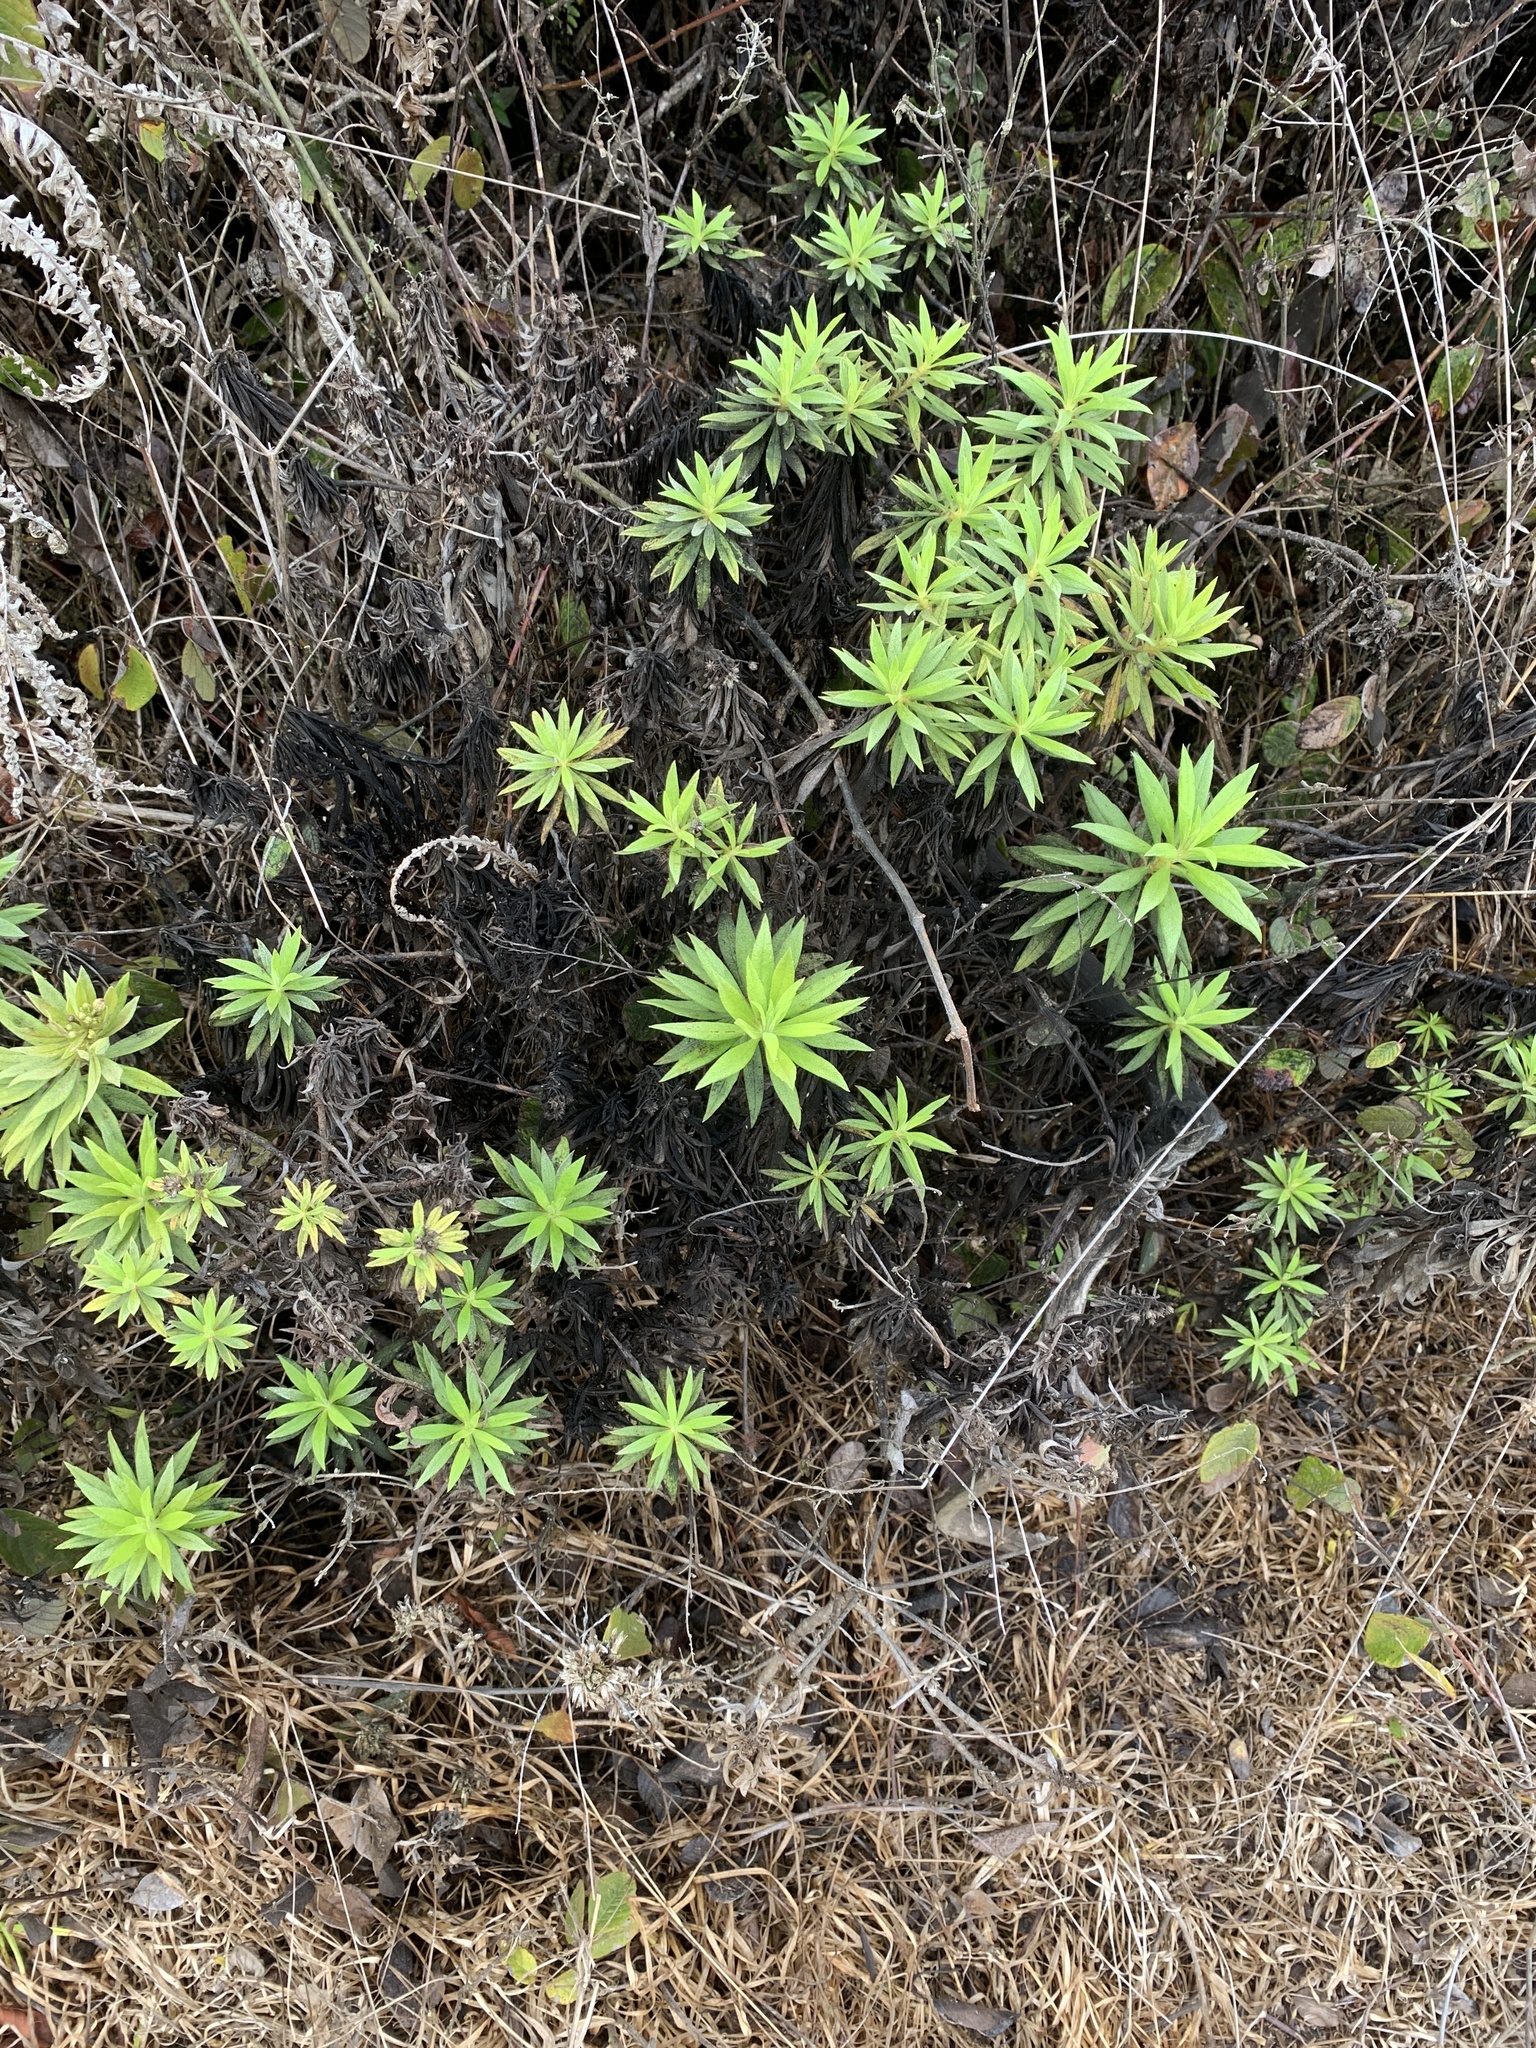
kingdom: Plantae
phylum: Tracheophyta
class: Magnoliopsida
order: Asterales
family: Asteraceae
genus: Erigeron
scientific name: Erigeron lancifolius
